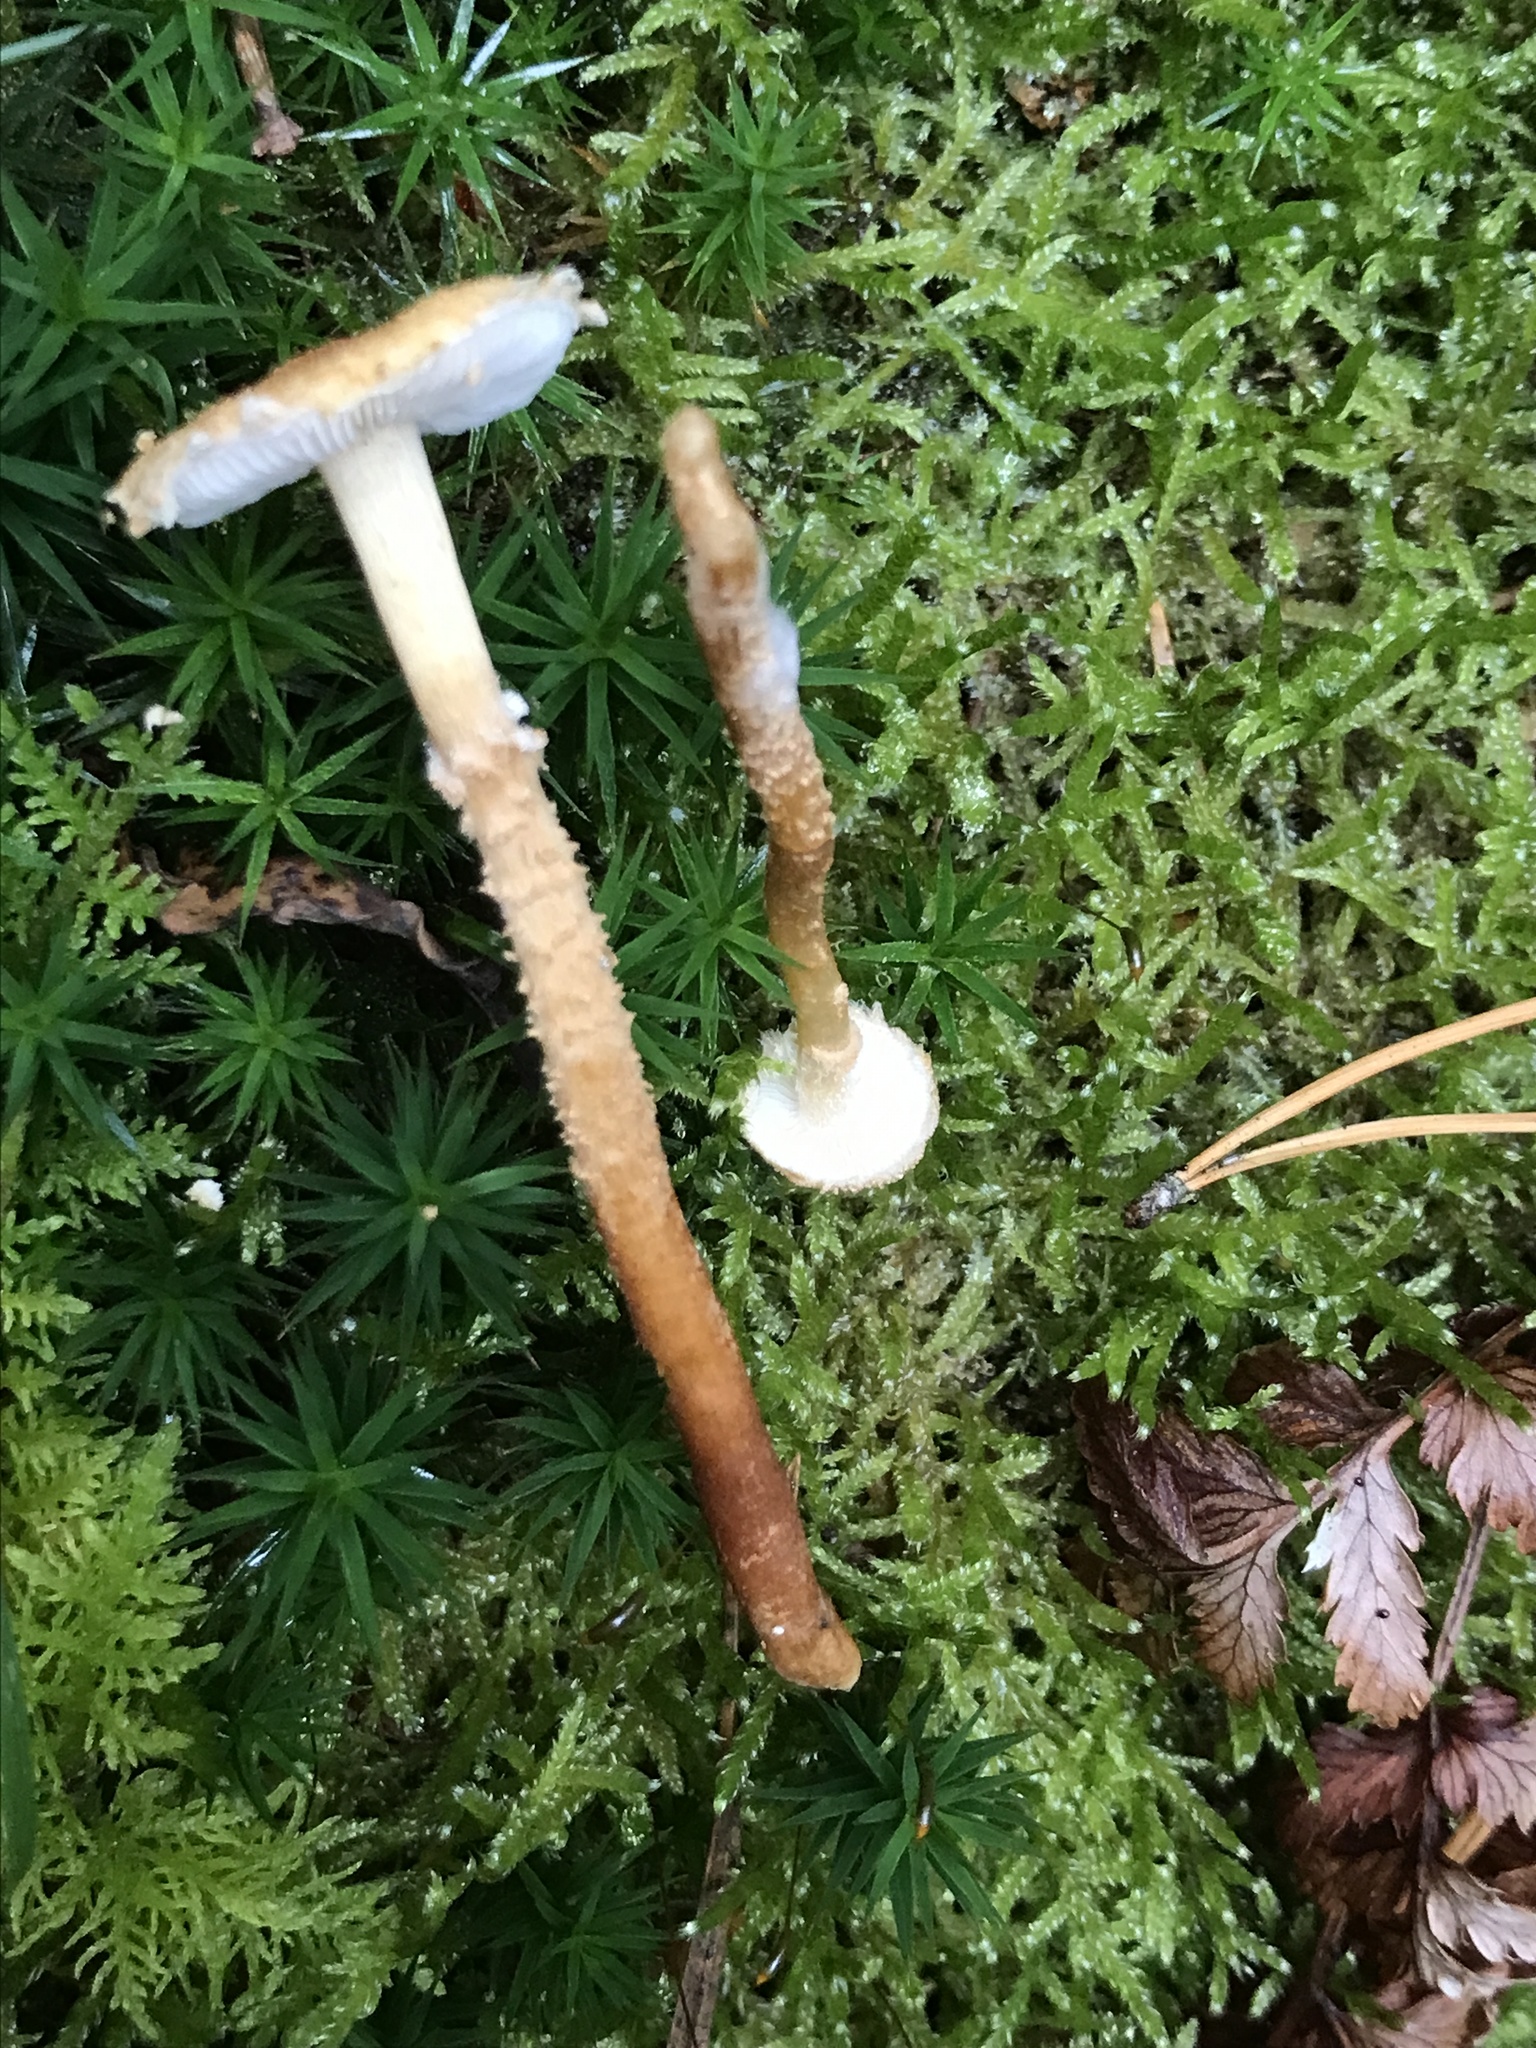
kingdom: Fungi
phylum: Basidiomycota
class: Agaricomycetes
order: Agaricales
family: Tricholomataceae
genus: Cystoderma
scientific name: Cystoderma amianthinum
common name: Earthy powdercap
